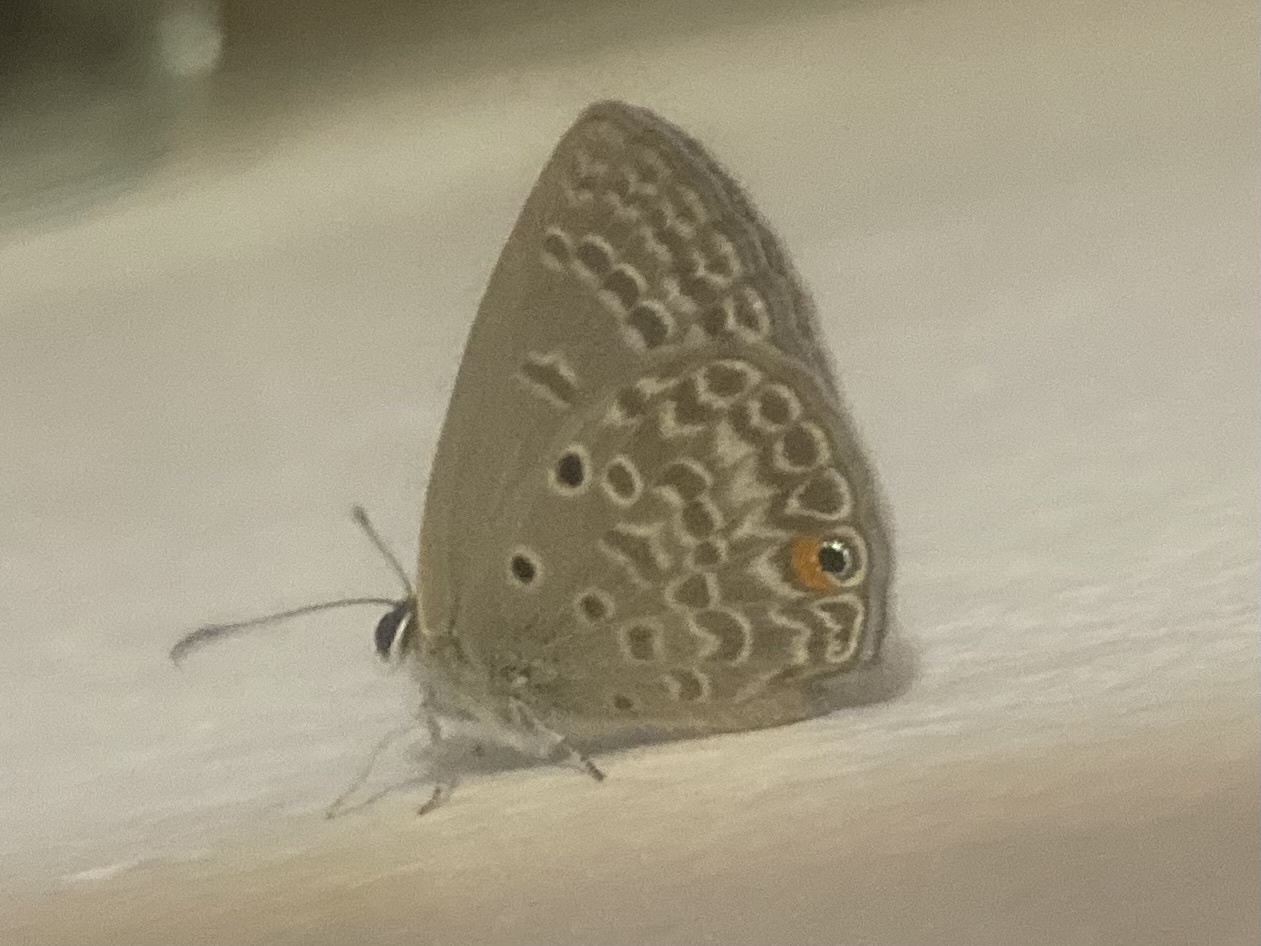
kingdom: Animalia
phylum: Arthropoda
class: Insecta
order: Lepidoptera
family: Lycaenidae
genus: Euchrysops
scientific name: Euchrysops malathana
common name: Common smoky blue
